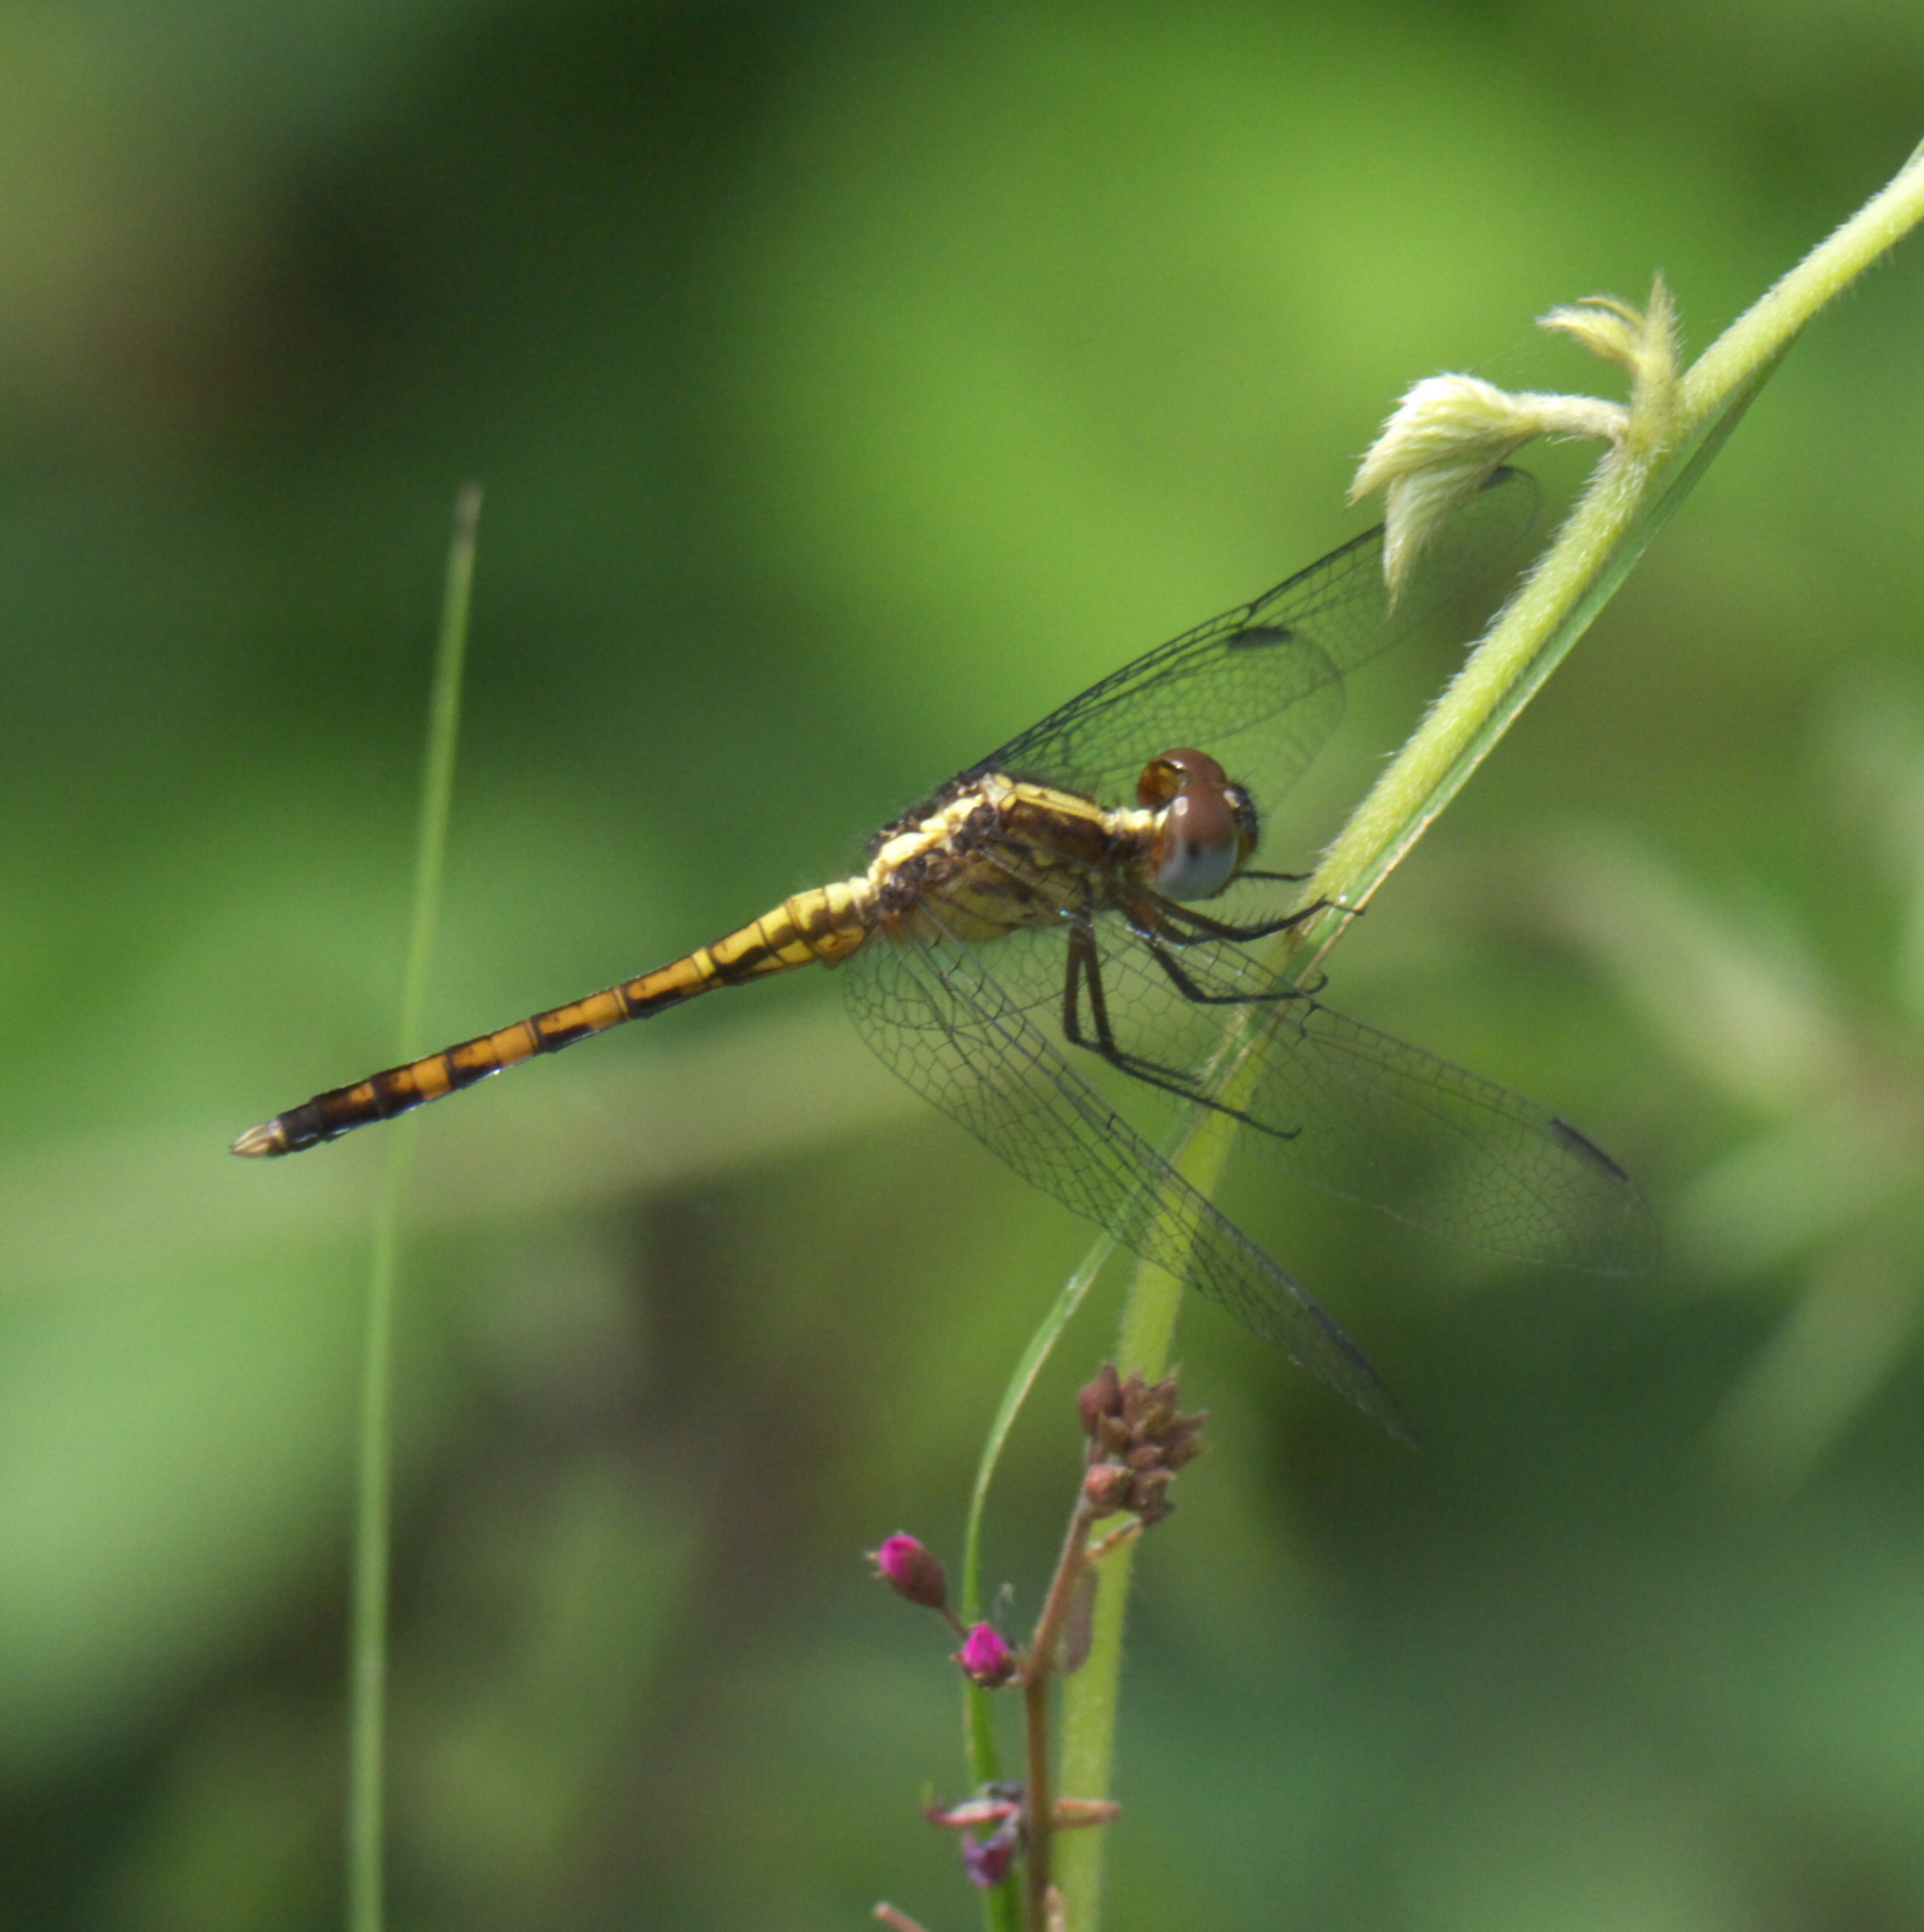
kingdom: Animalia
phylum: Arthropoda
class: Insecta
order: Odonata
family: Libellulidae
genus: Erythrodiplax
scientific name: Erythrodiplax umbrata
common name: Band-winged dragonlet
